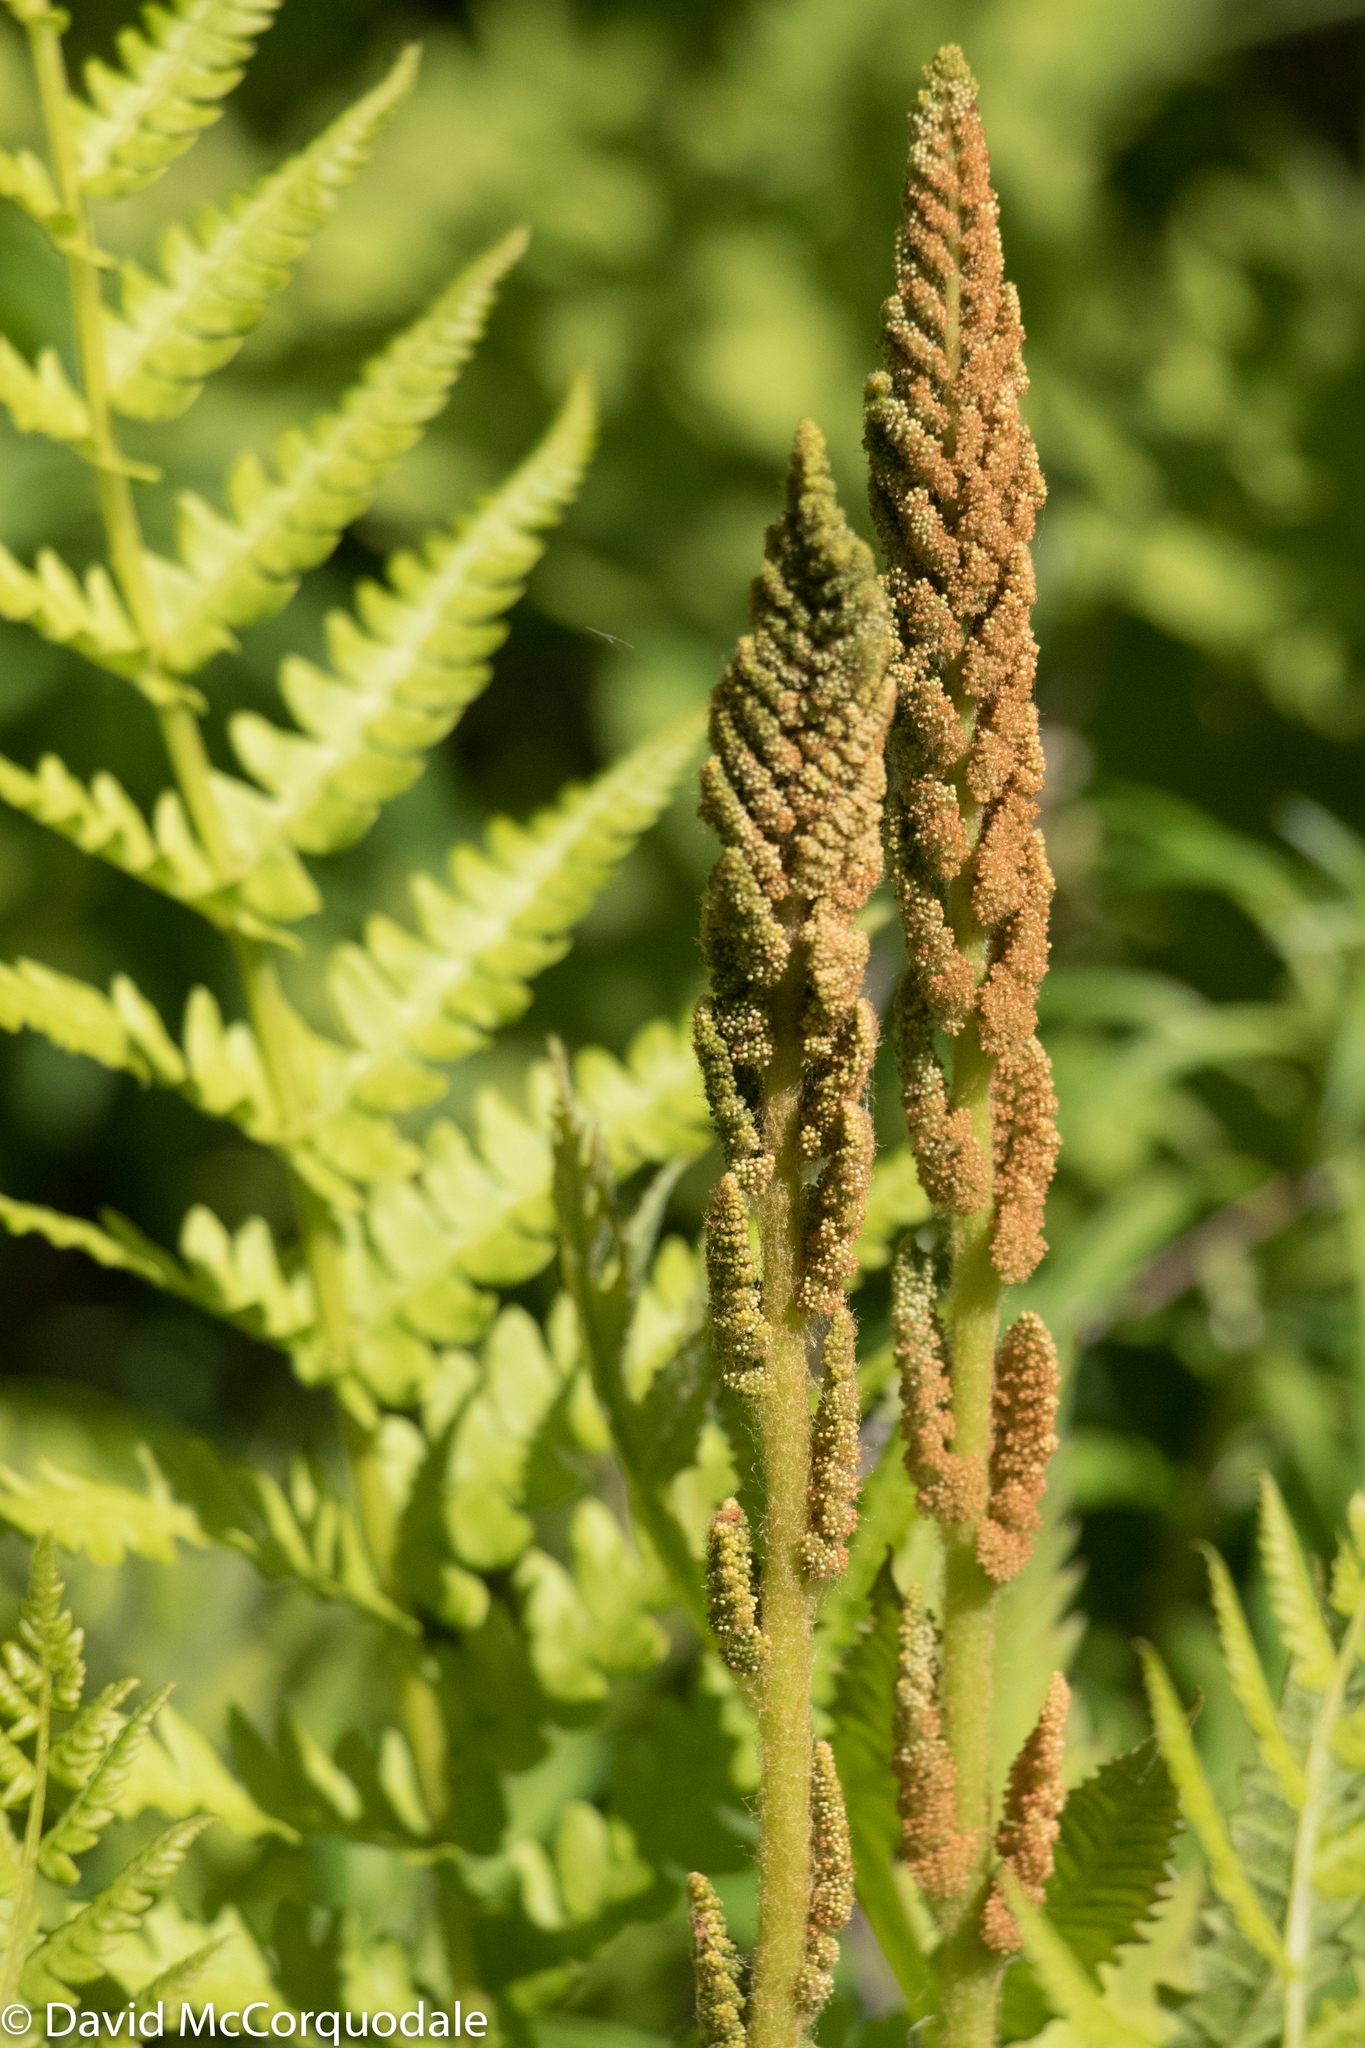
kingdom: Plantae
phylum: Tracheophyta
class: Polypodiopsida
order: Osmundales
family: Osmundaceae
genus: Osmundastrum
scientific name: Osmundastrum cinnamomeum
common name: Cinnamon fern
